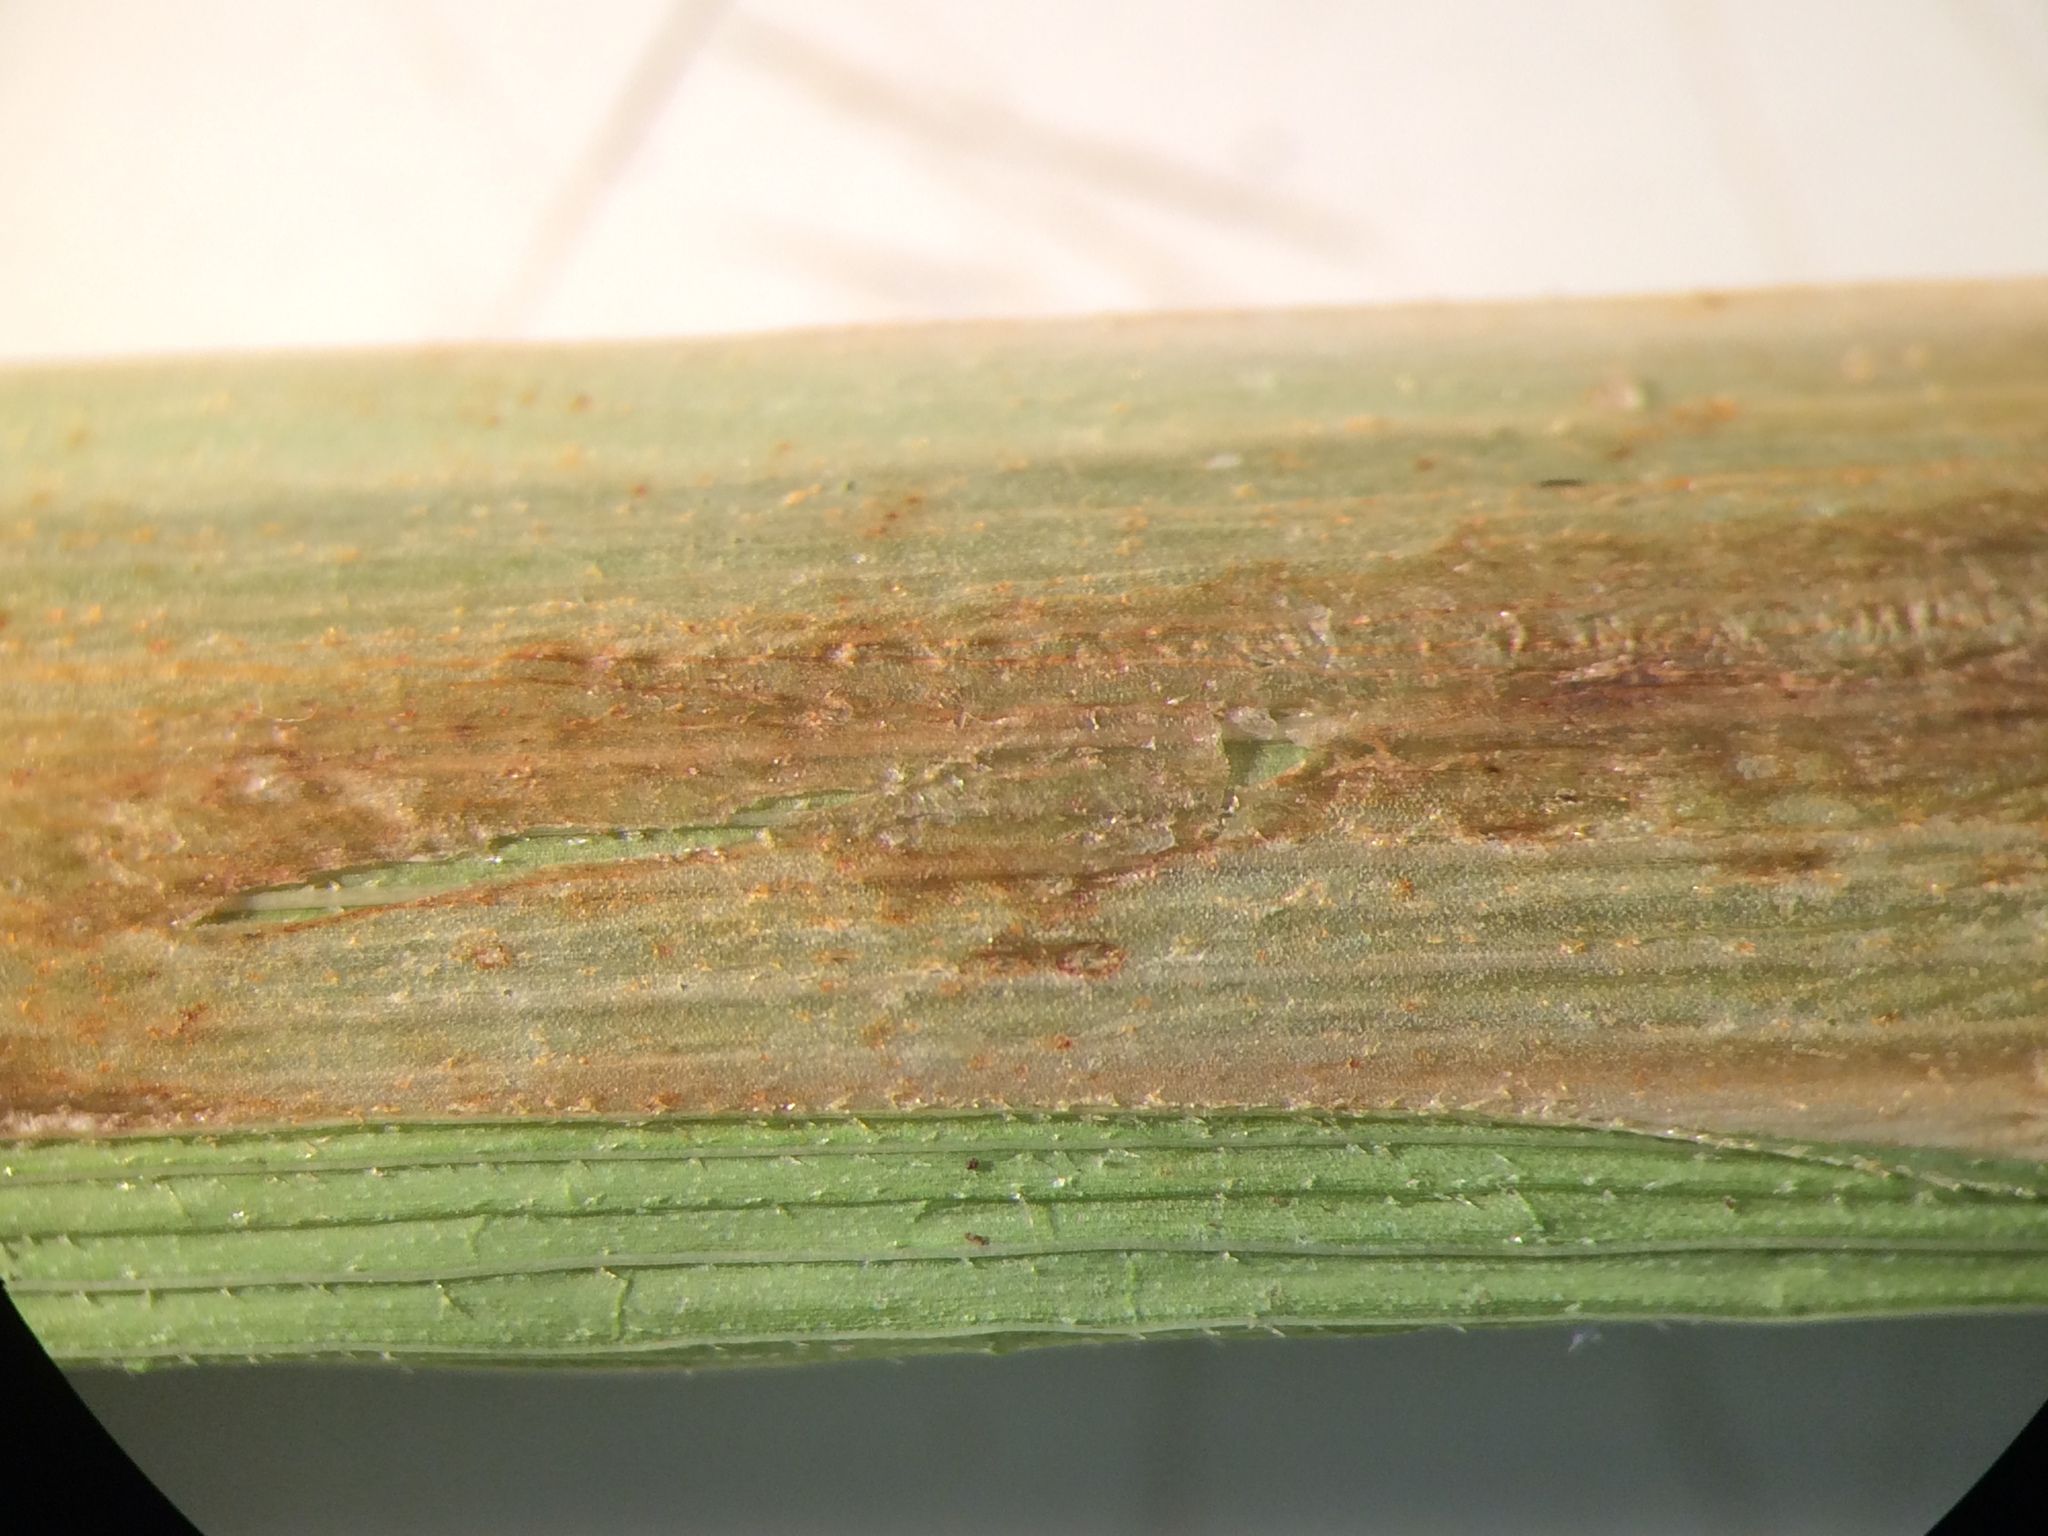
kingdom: Plantae
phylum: Tracheophyta
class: Liliopsida
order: Poales
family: Cyperaceae
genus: Carex
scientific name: Carex gynandra
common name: Nodding sedge
